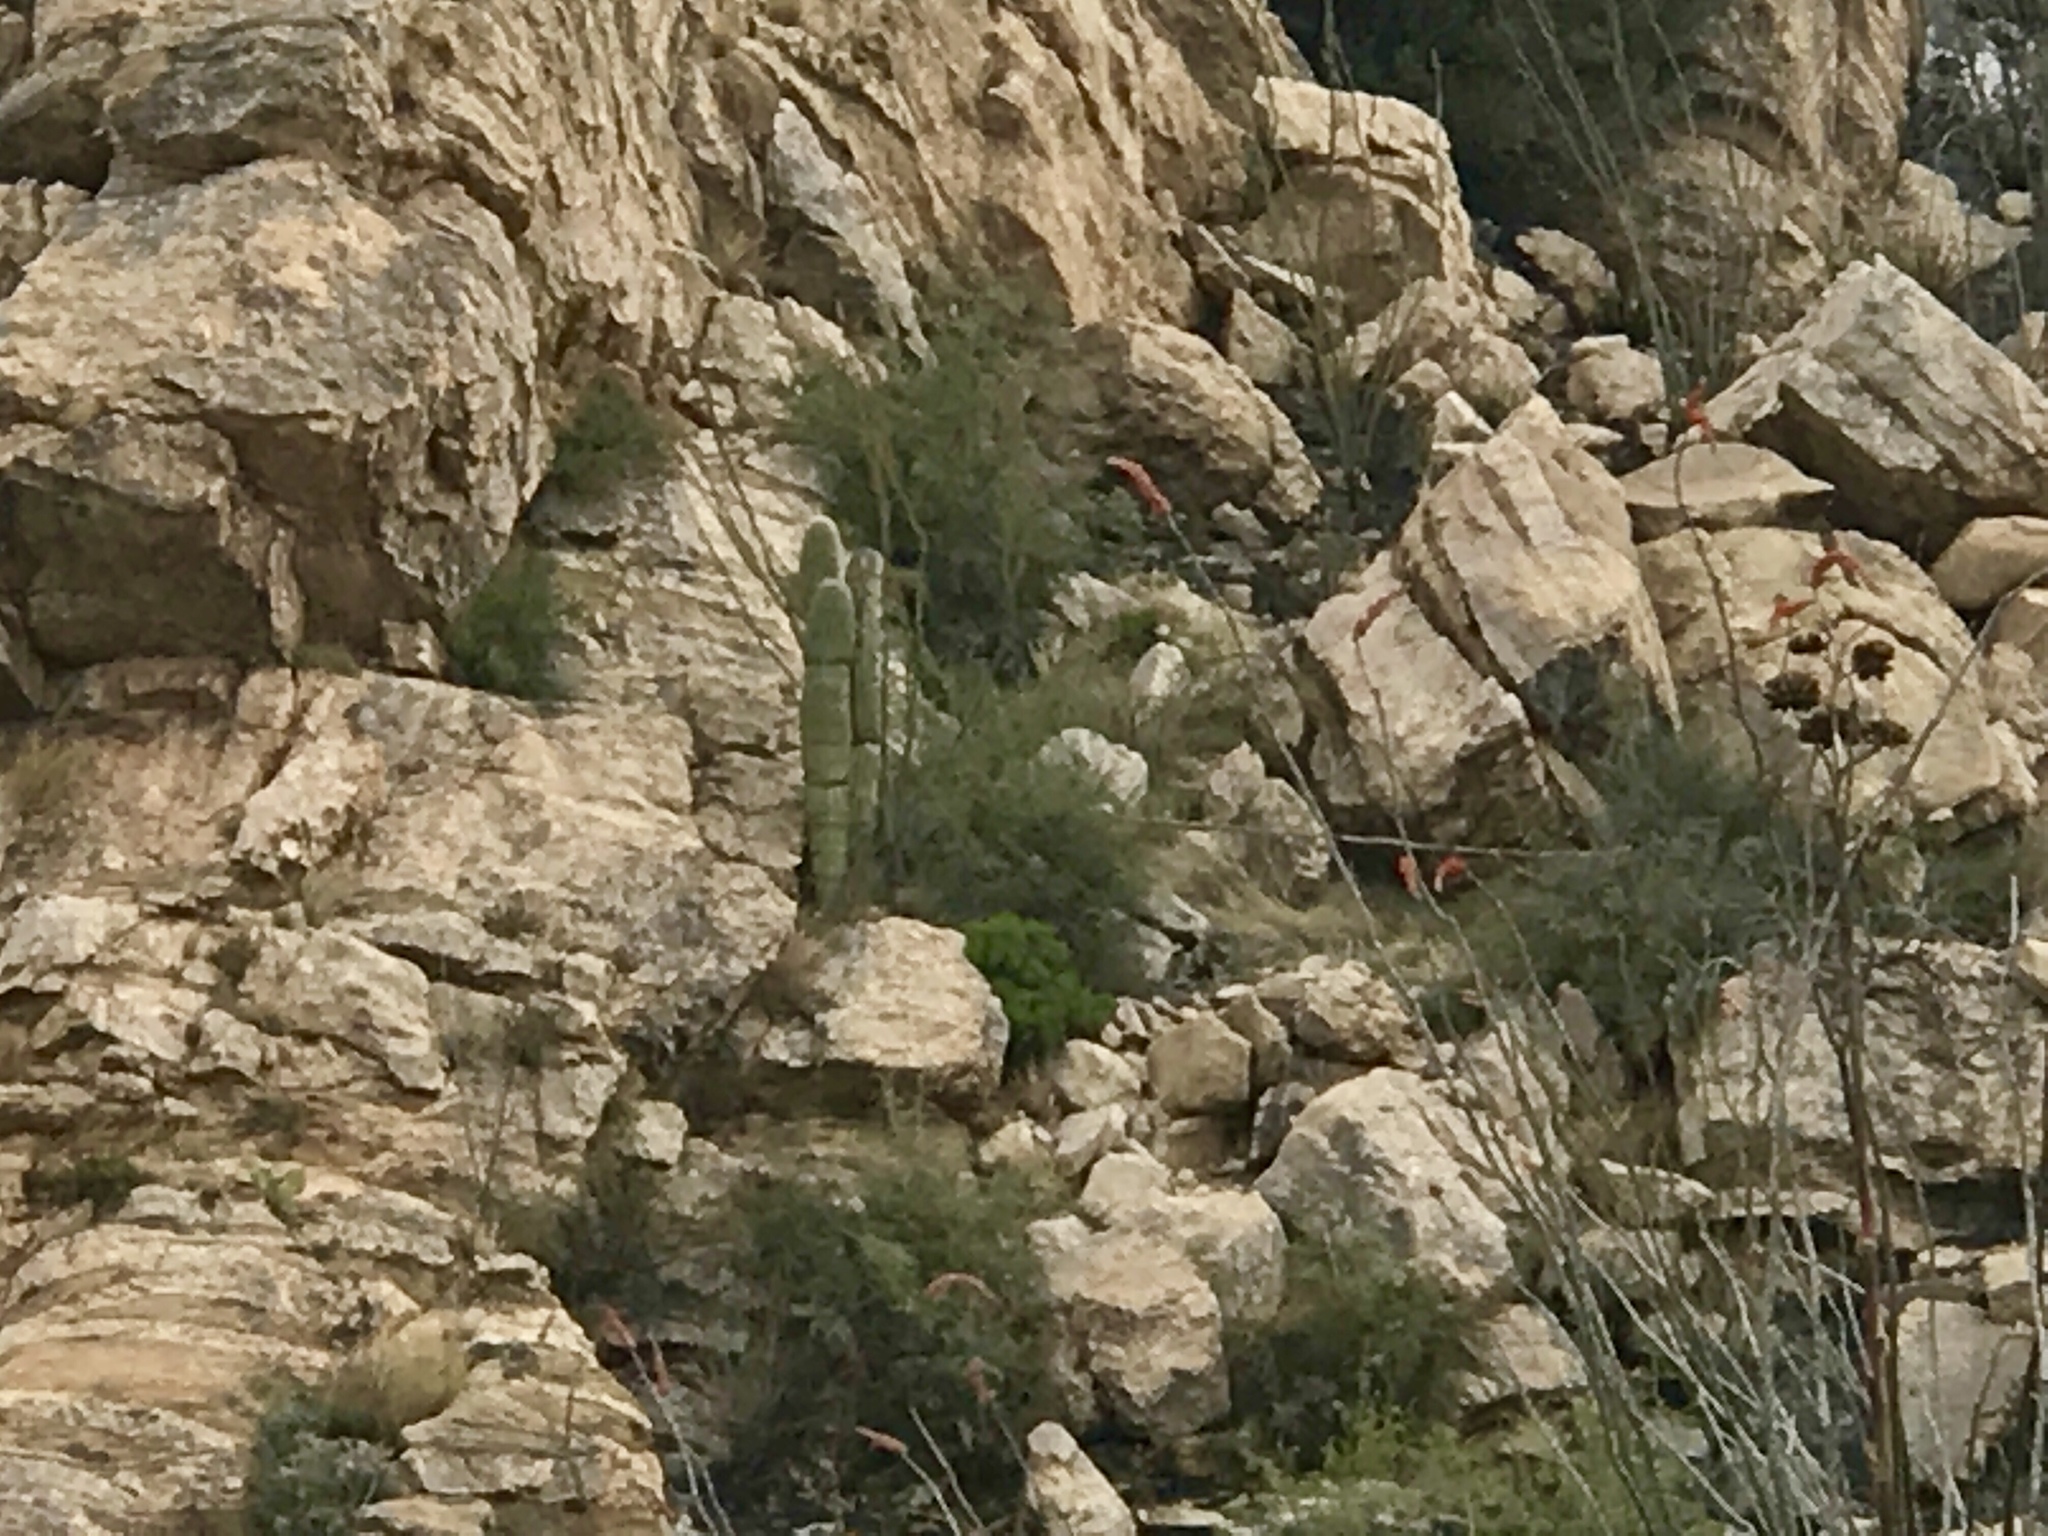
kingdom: Plantae
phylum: Tracheophyta
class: Magnoliopsida
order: Caryophyllales
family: Cactaceae
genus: Carnegiea
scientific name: Carnegiea gigantea
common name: Saguaro
